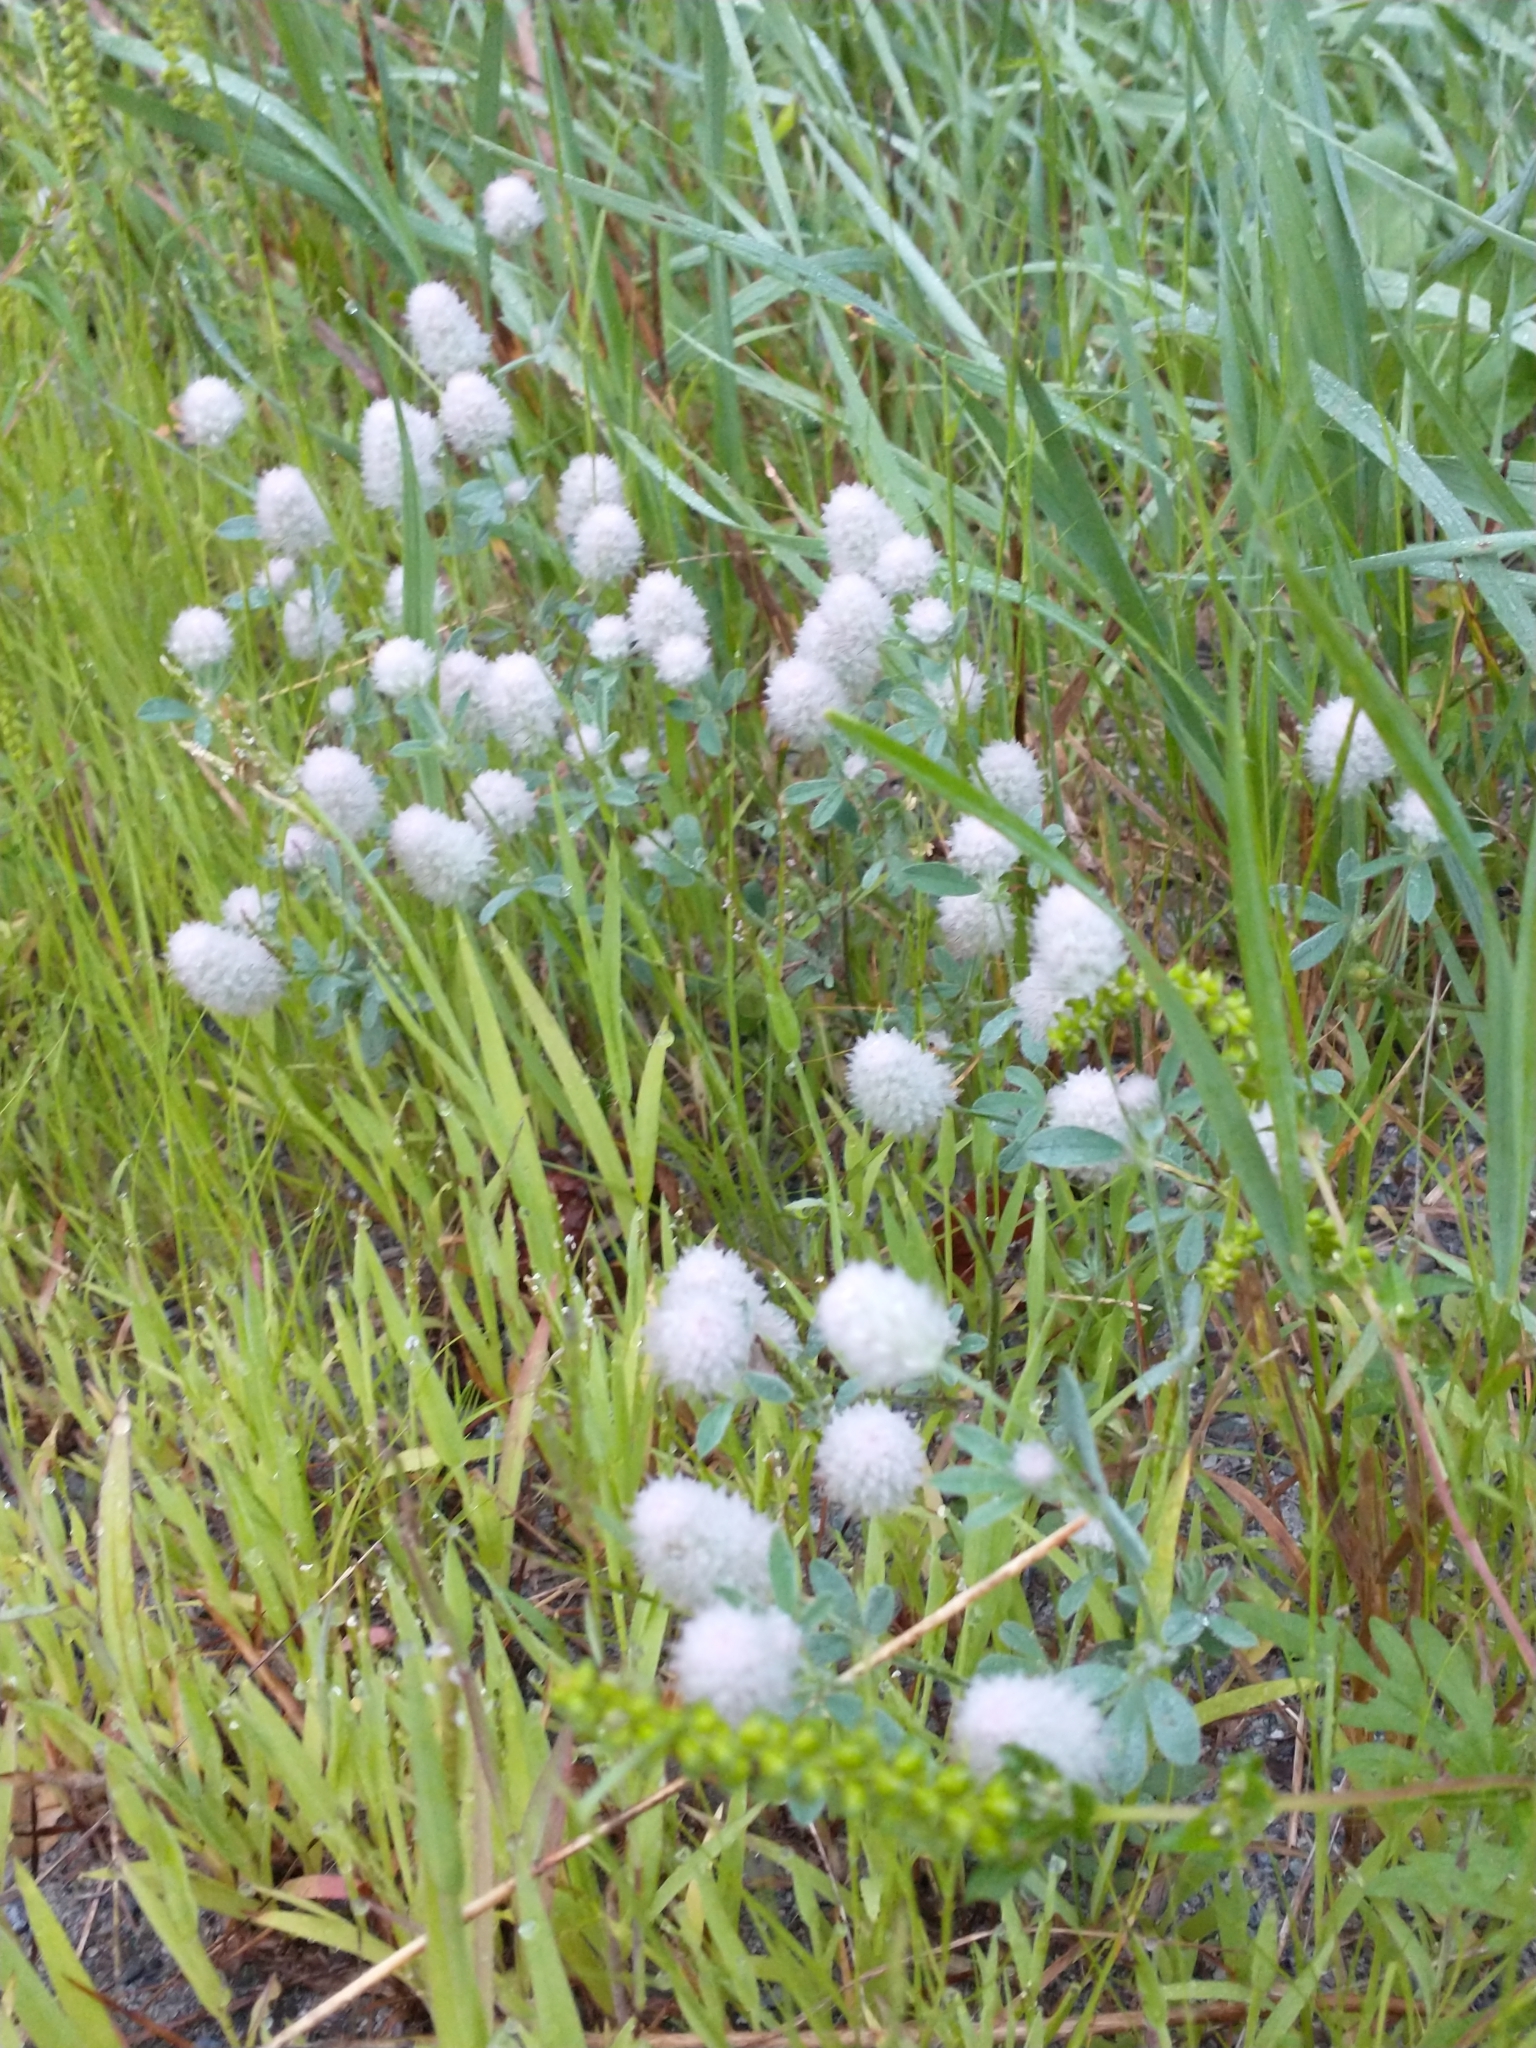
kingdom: Plantae
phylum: Tracheophyta
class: Magnoliopsida
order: Fabales
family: Fabaceae
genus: Trifolium
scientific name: Trifolium arvense
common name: Hare's-foot clover
